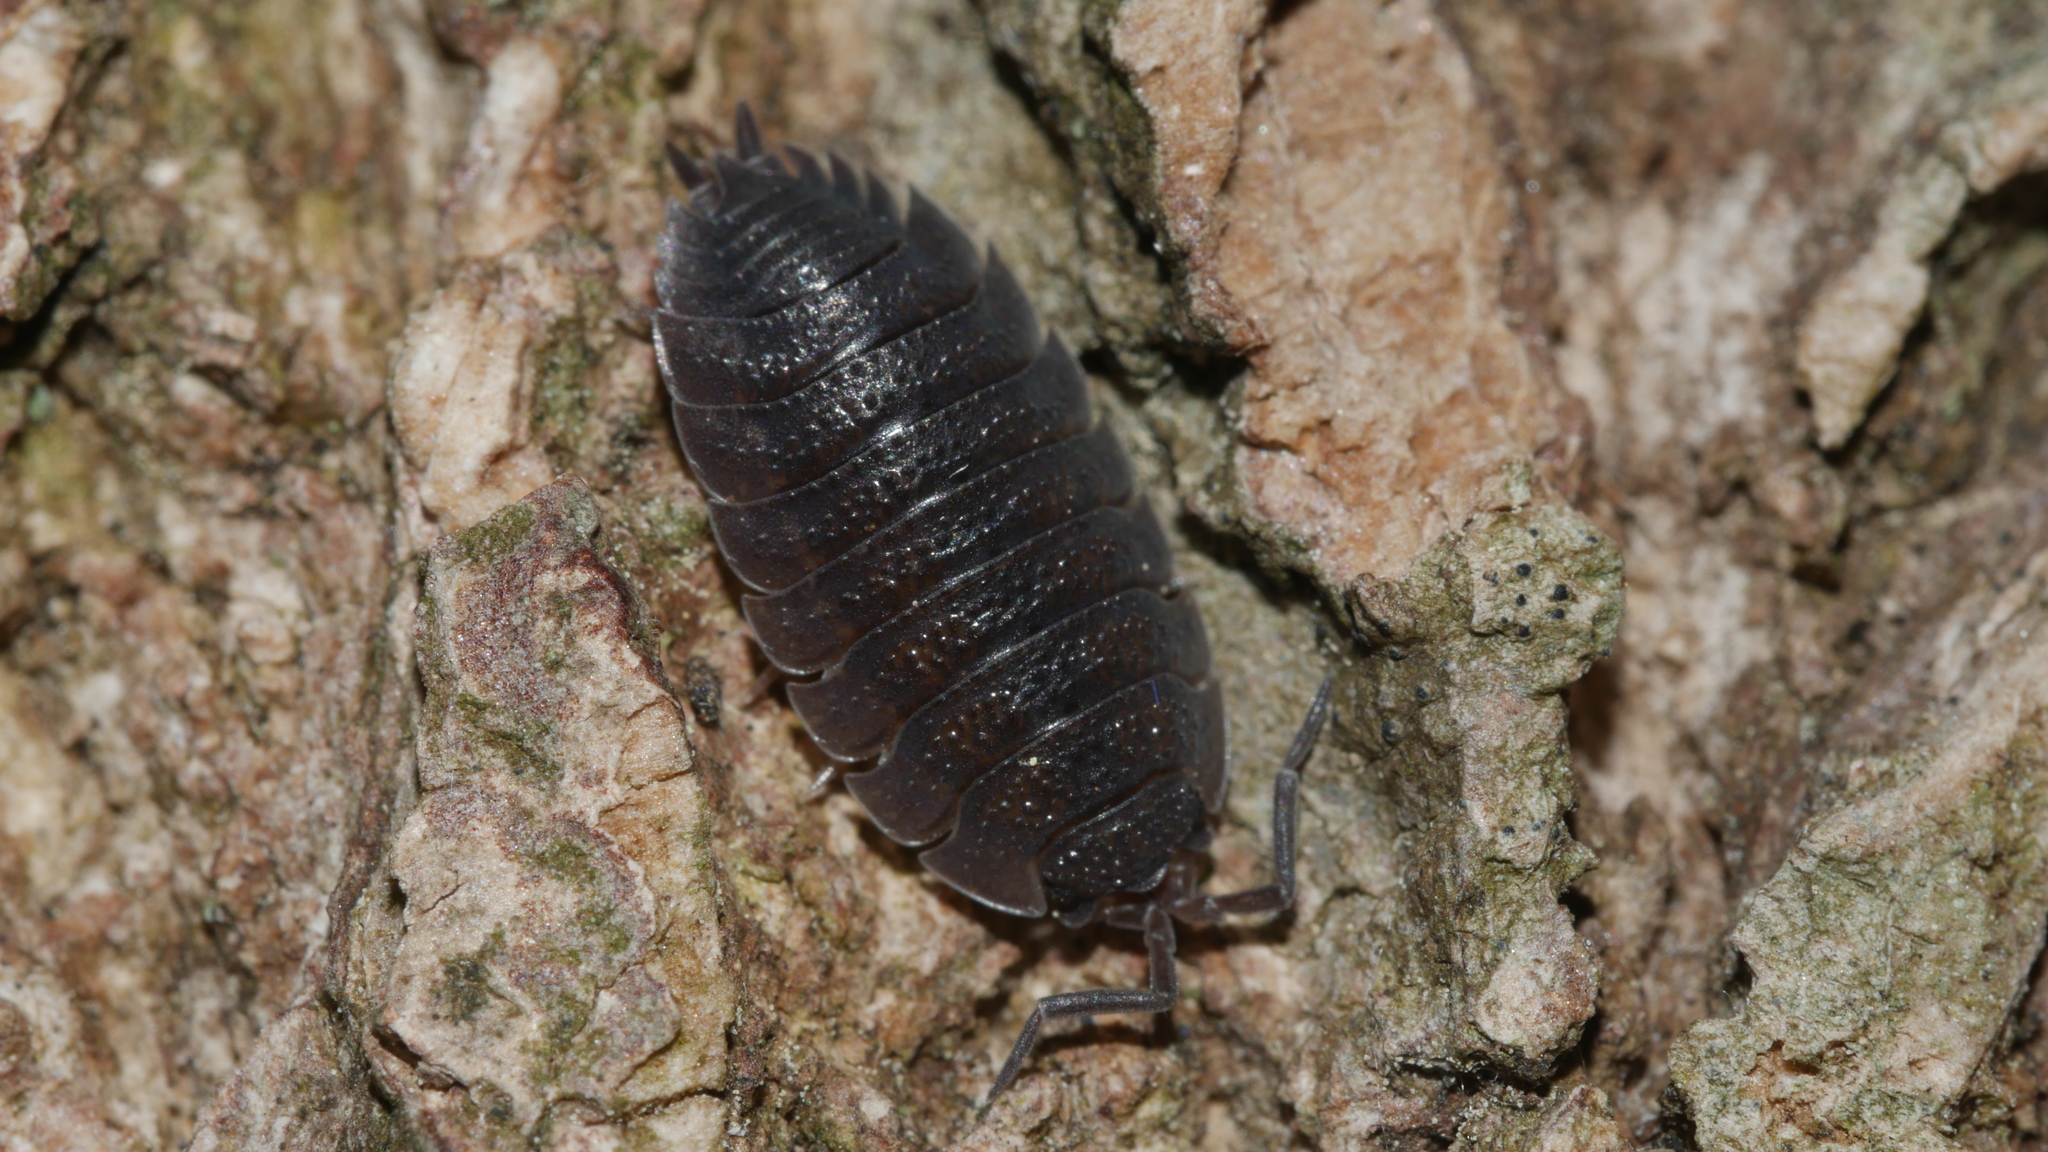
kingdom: Animalia
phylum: Arthropoda
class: Malacostraca
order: Isopoda
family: Porcellionidae
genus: Porcellio
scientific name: Porcellio scaber
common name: Common rough woodlouse
